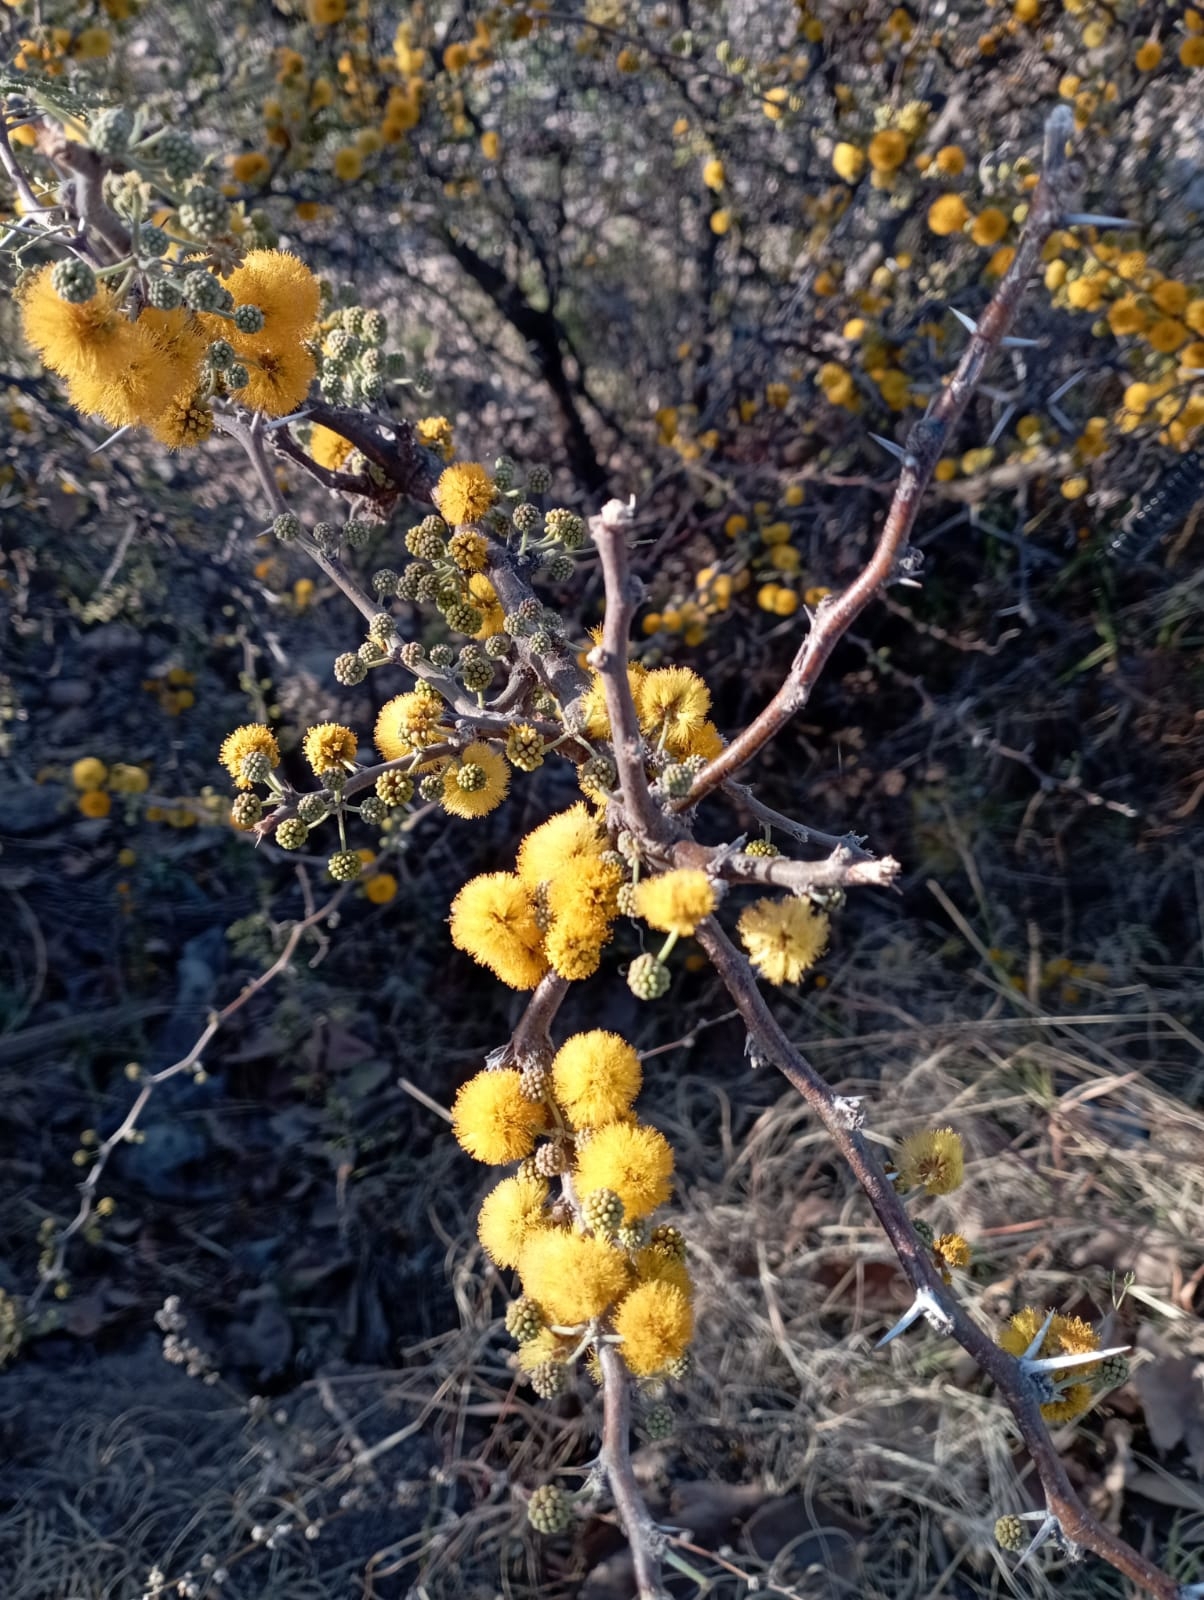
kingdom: Plantae
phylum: Tracheophyta
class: Magnoliopsida
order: Fabales
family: Fabaceae
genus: Vachellia
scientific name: Vachellia caven
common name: Roman cassie
